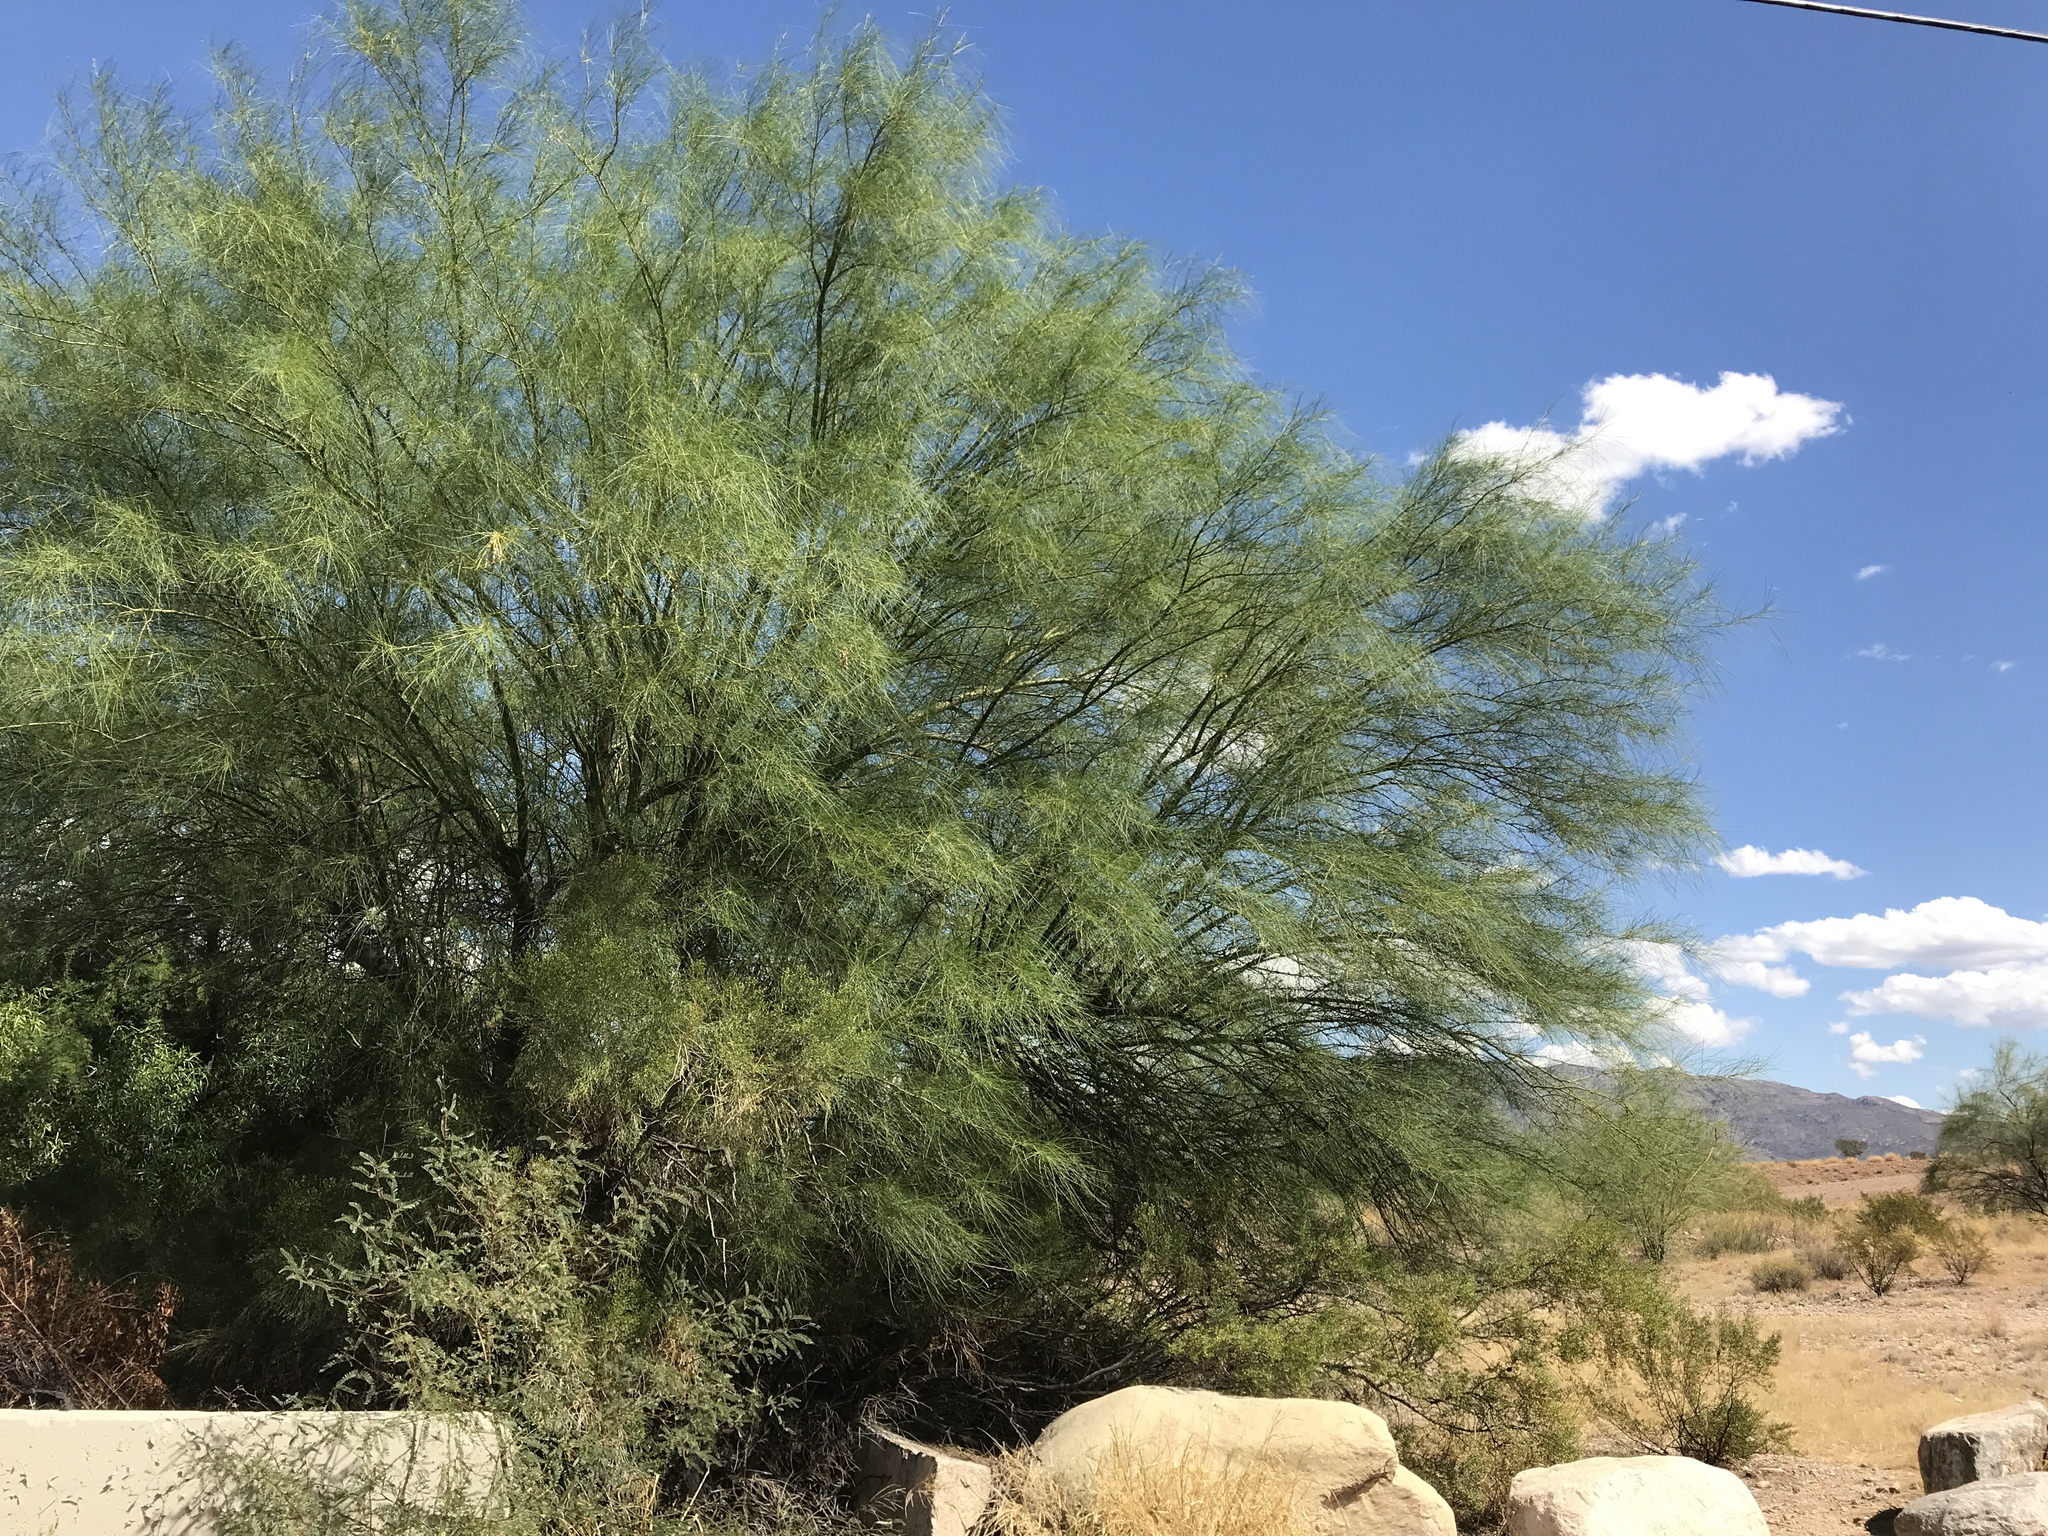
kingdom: Plantae
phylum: Tracheophyta
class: Magnoliopsida
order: Fabales
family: Fabaceae
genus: Parkinsonia
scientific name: Parkinsonia florida
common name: Blue paloverde
